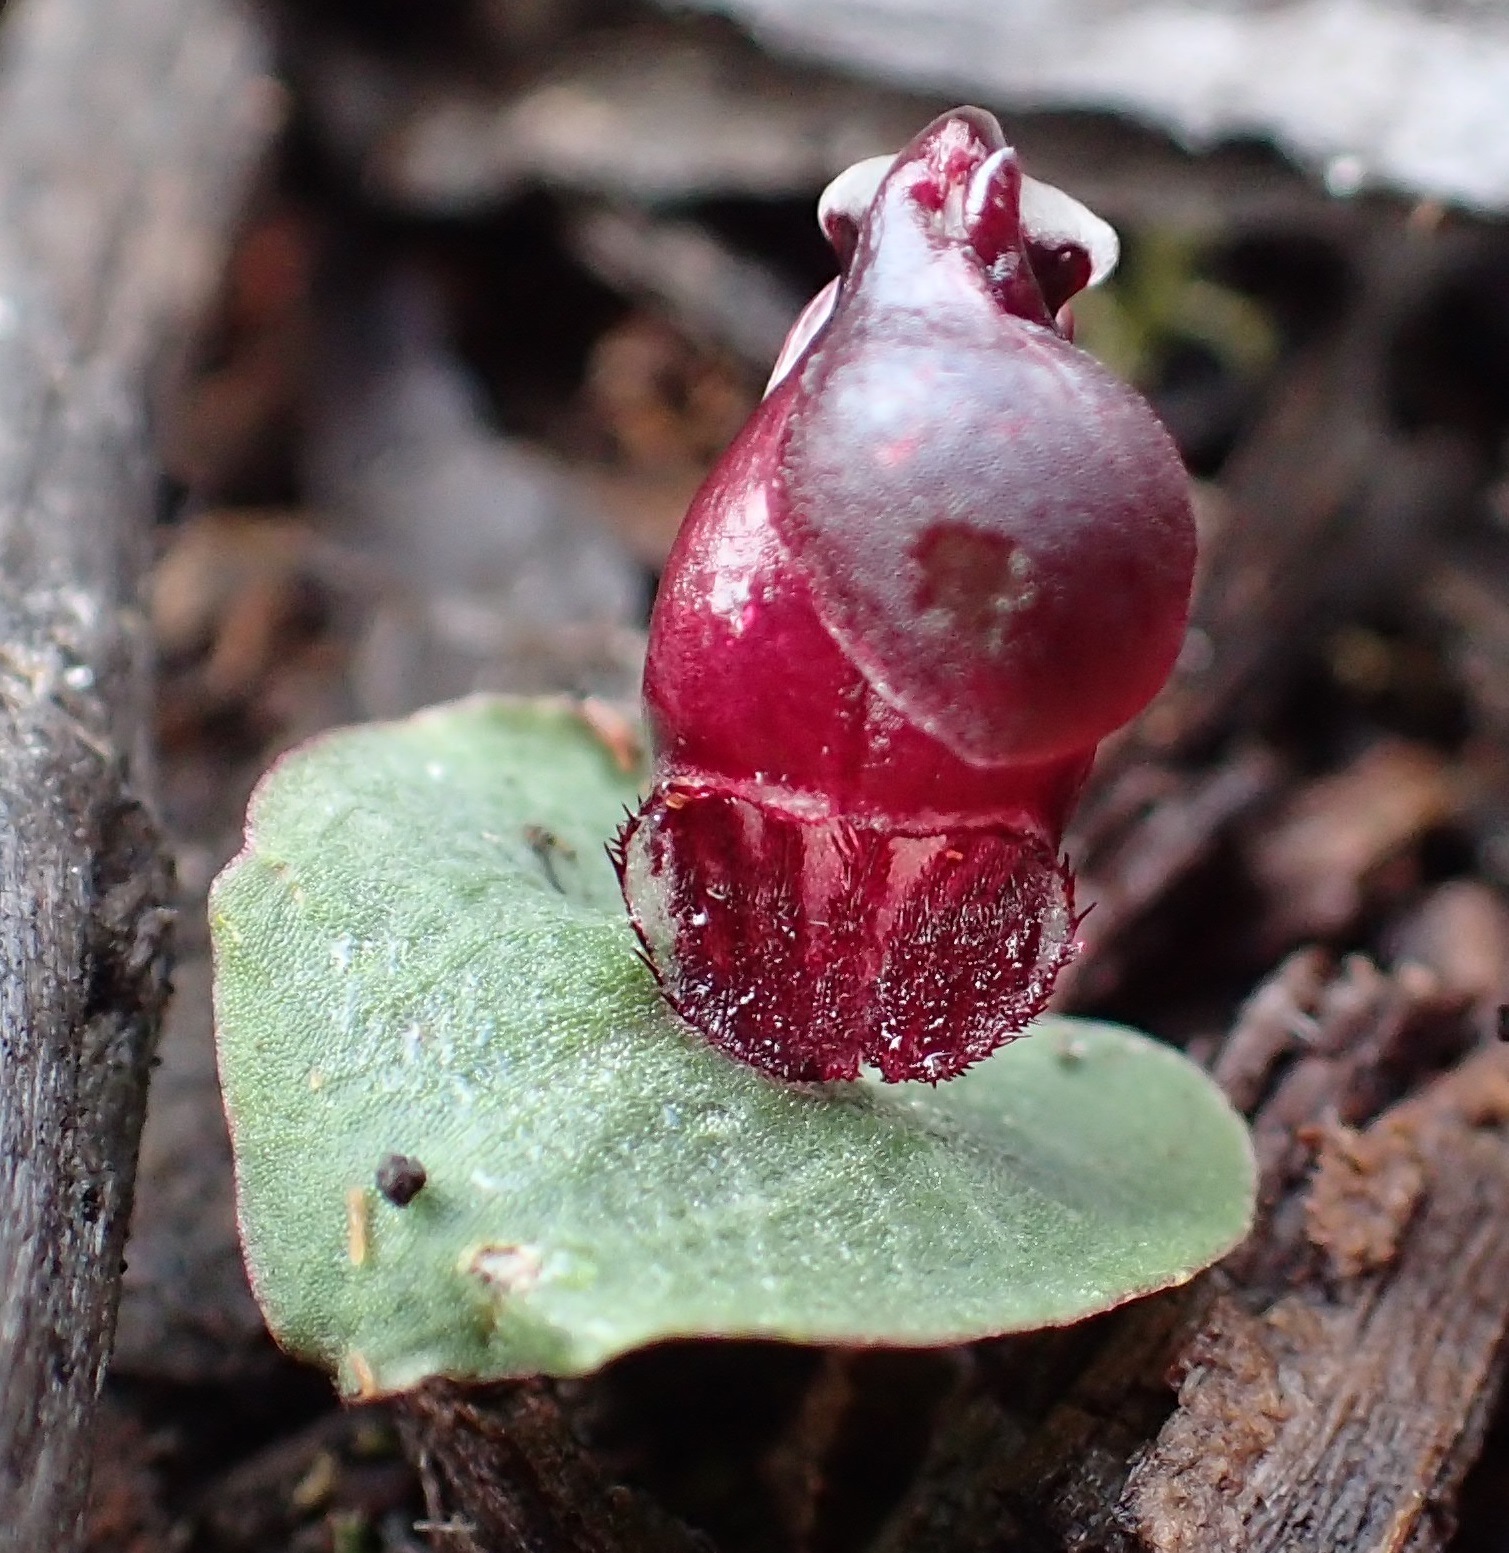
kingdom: Plantae
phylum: Tracheophyta
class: Liliopsida
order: Asparagales
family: Orchidaceae
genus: Corybas
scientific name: Corybas unguiculatus
